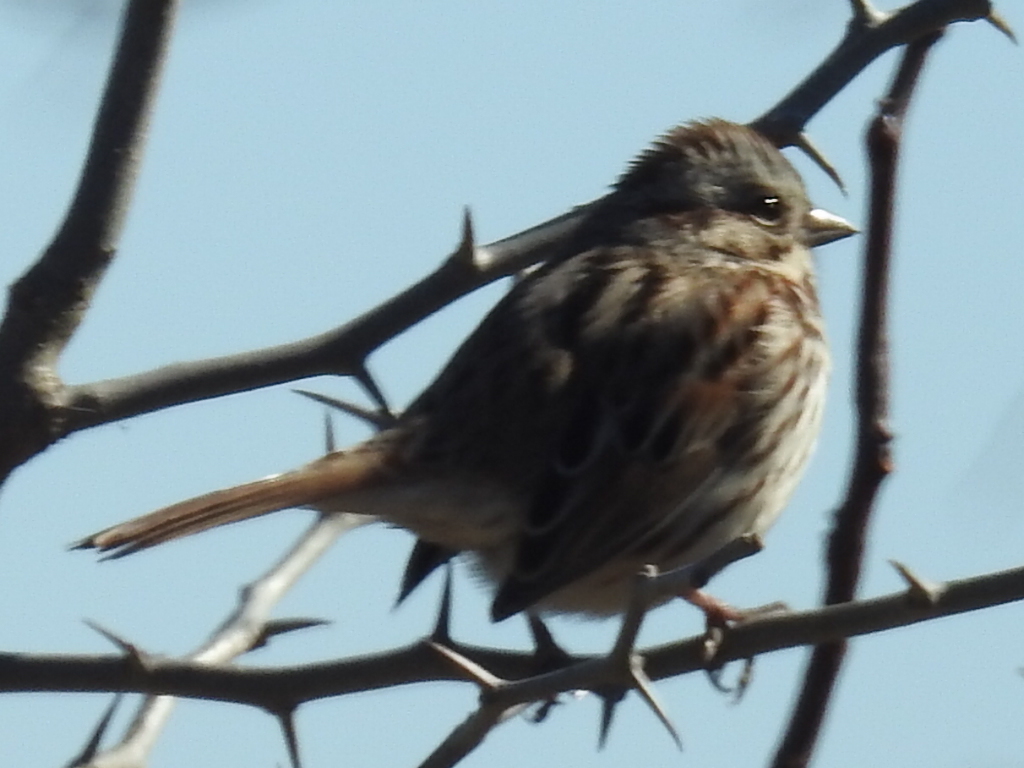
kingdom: Animalia
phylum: Chordata
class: Aves
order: Passeriformes
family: Passerellidae
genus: Melospiza
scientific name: Melospiza melodia
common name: Song sparrow
